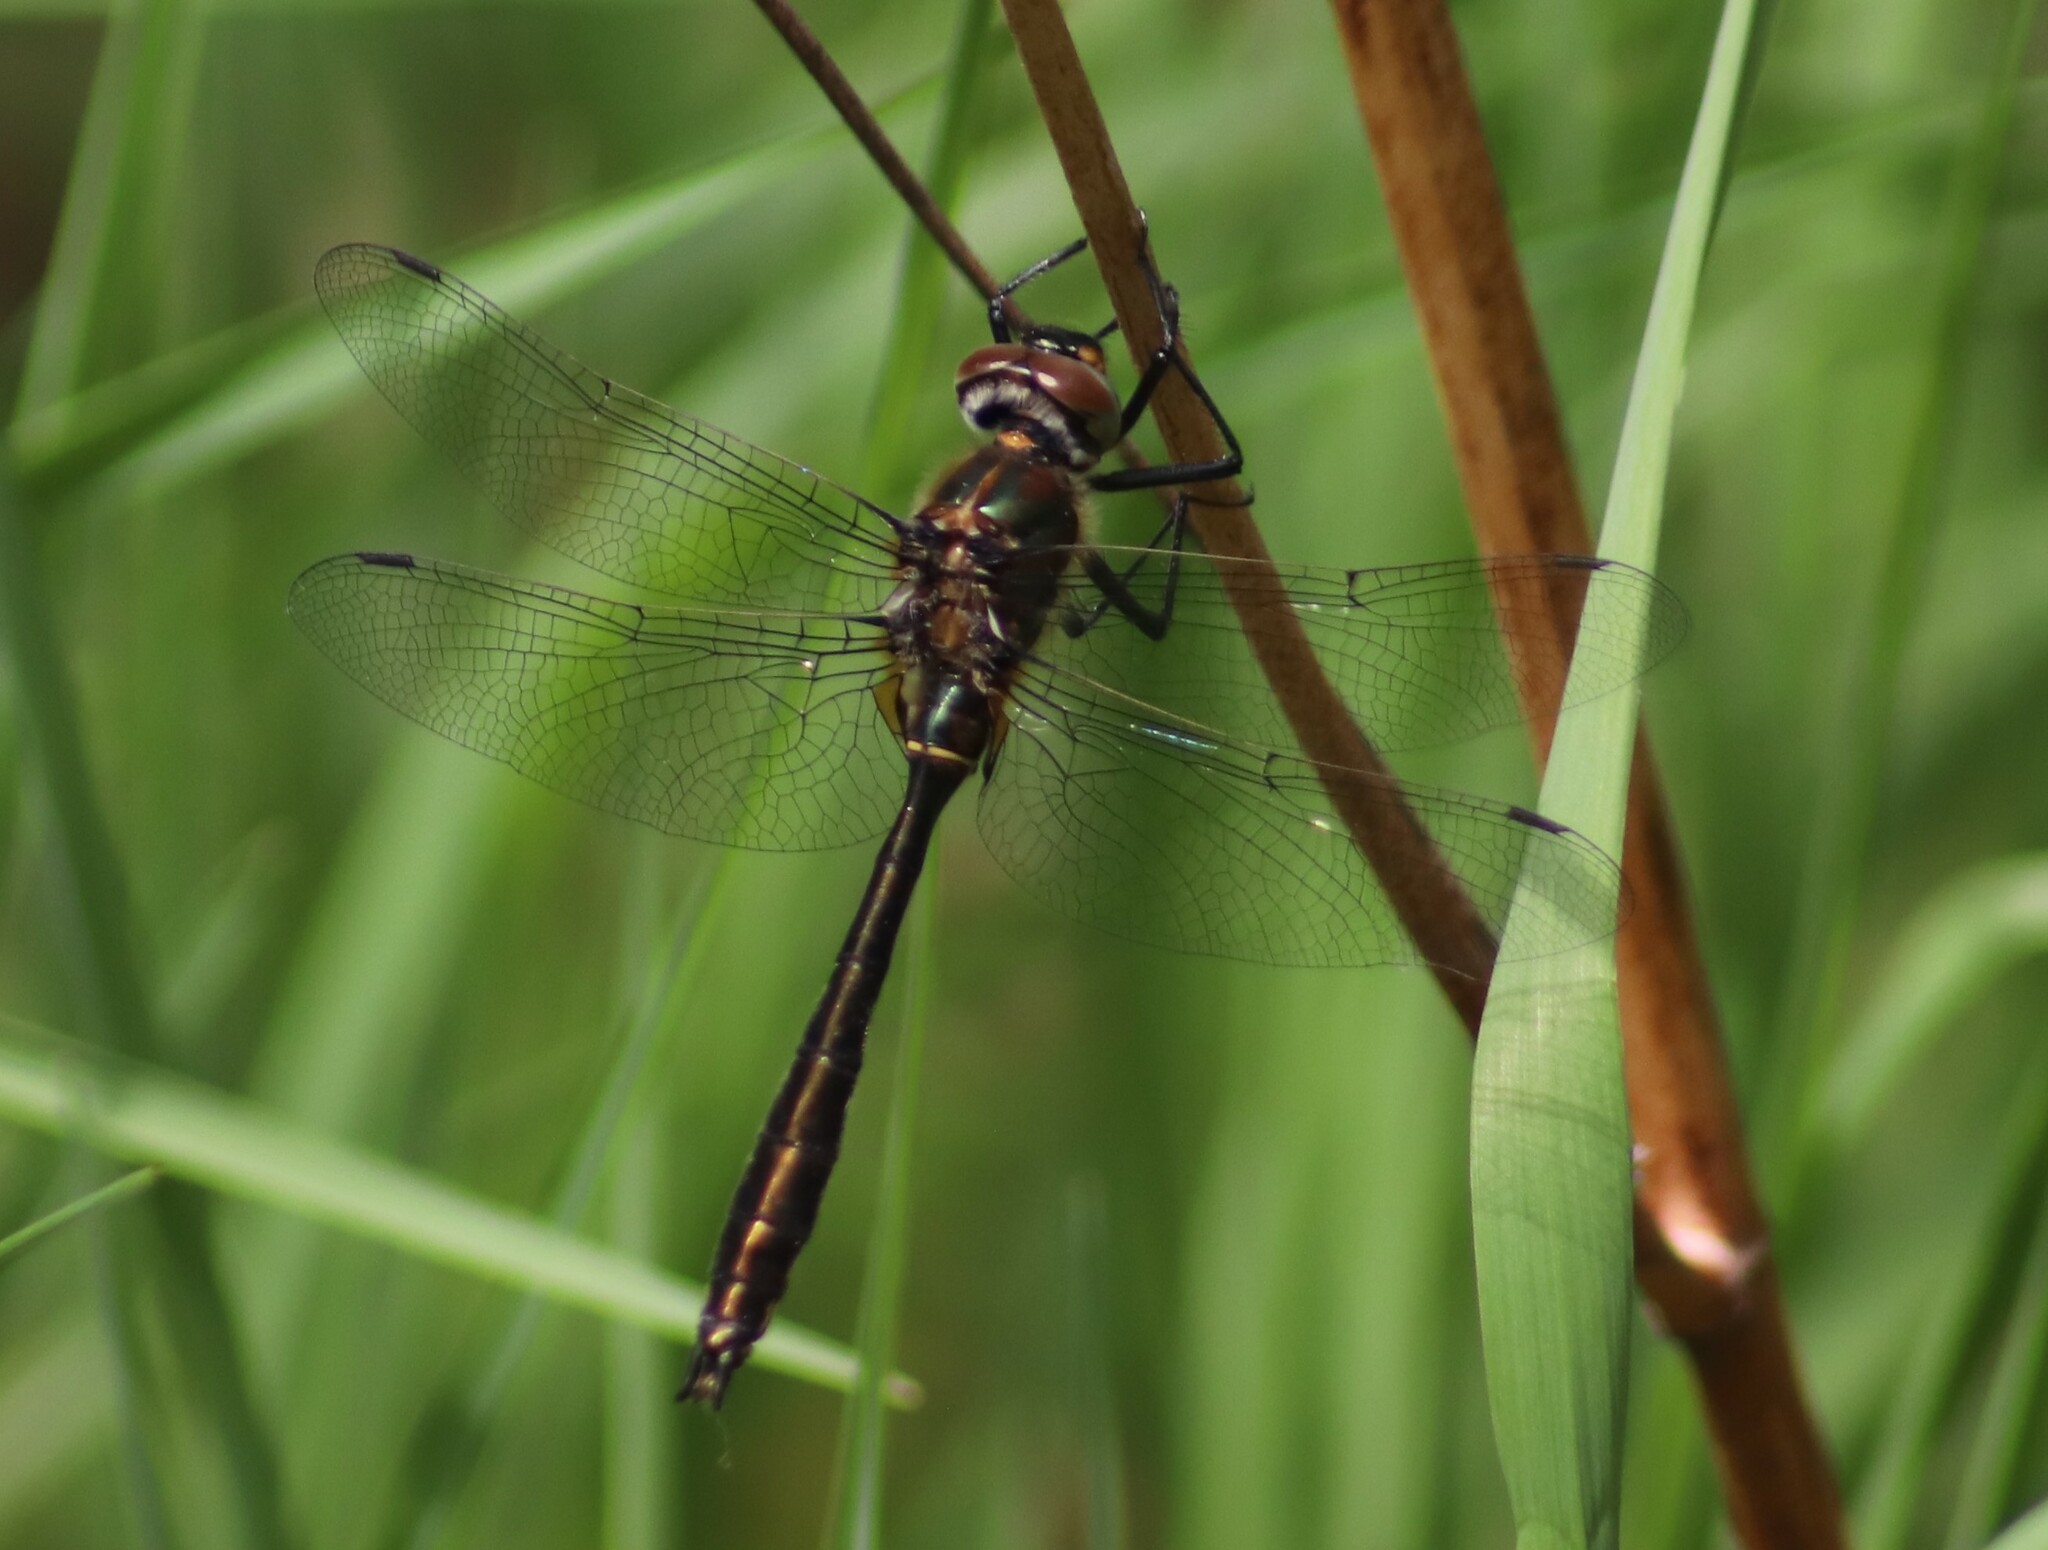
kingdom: Animalia
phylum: Arthropoda
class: Insecta
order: Odonata
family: Corduliidae
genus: Cordulia
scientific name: Cordulia shurtleffii
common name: American emerald
